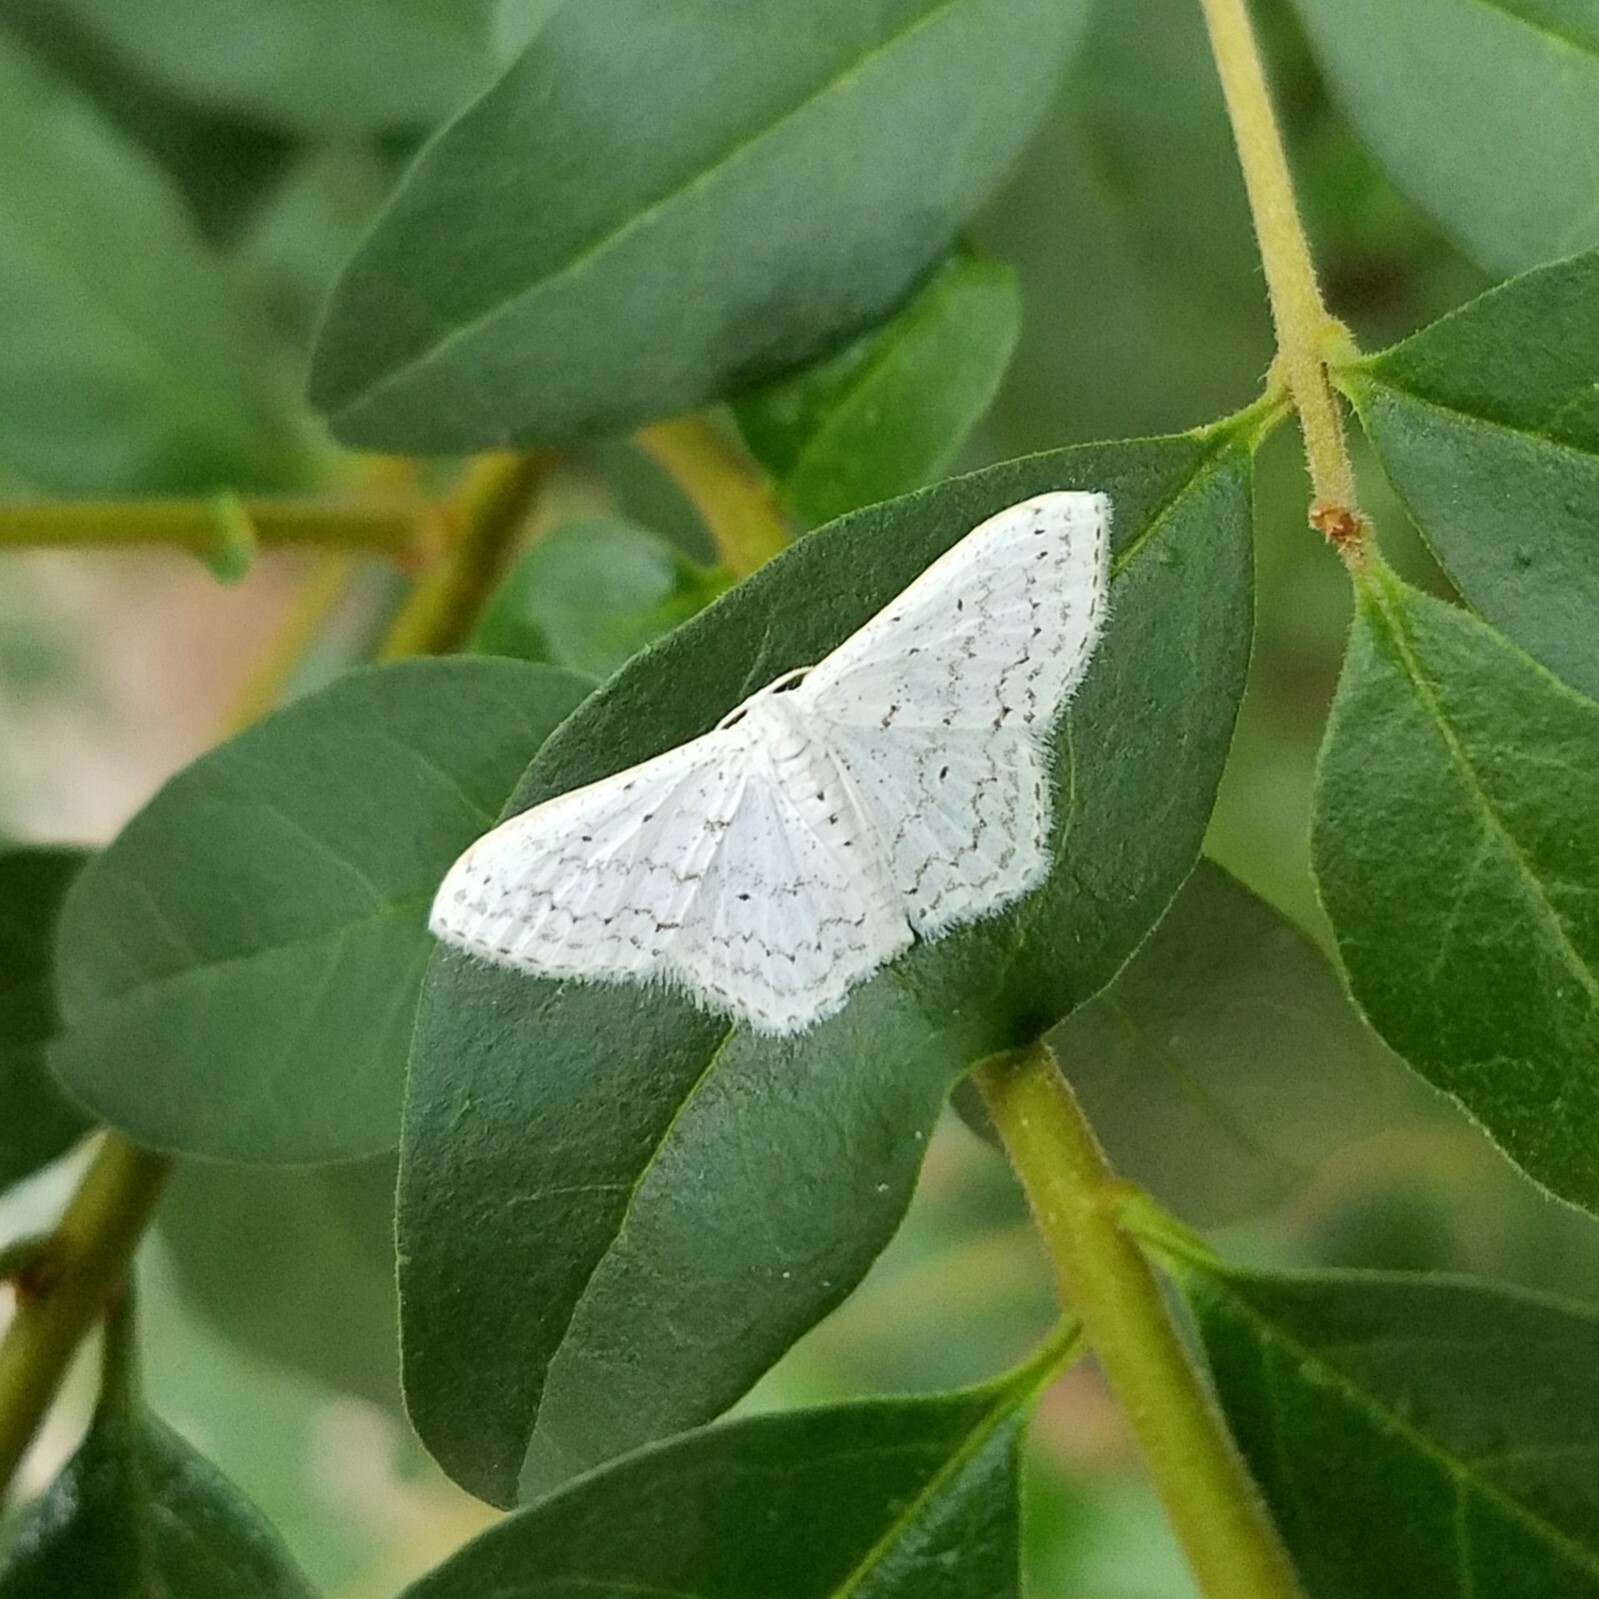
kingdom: Animalia
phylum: Arthropoda
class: Insecta
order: Lepidoptera
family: Geometridae
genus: Idaea
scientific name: Idaea tacturata
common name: Dot-lined wave
